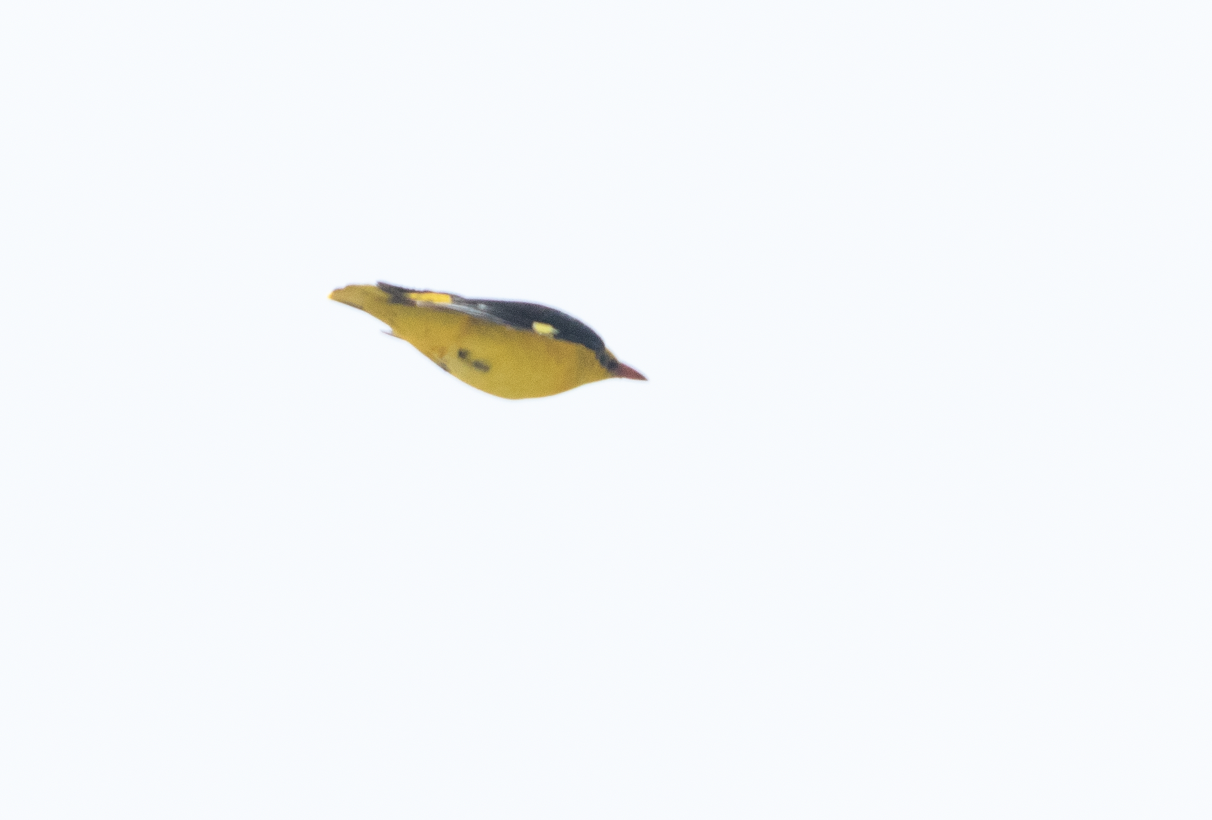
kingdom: Animalia
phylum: Chordata
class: Aves
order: Passeriformes
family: Oriolidae
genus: Oriolus
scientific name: Oriolus oriolus
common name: Eurasian golden oriole
